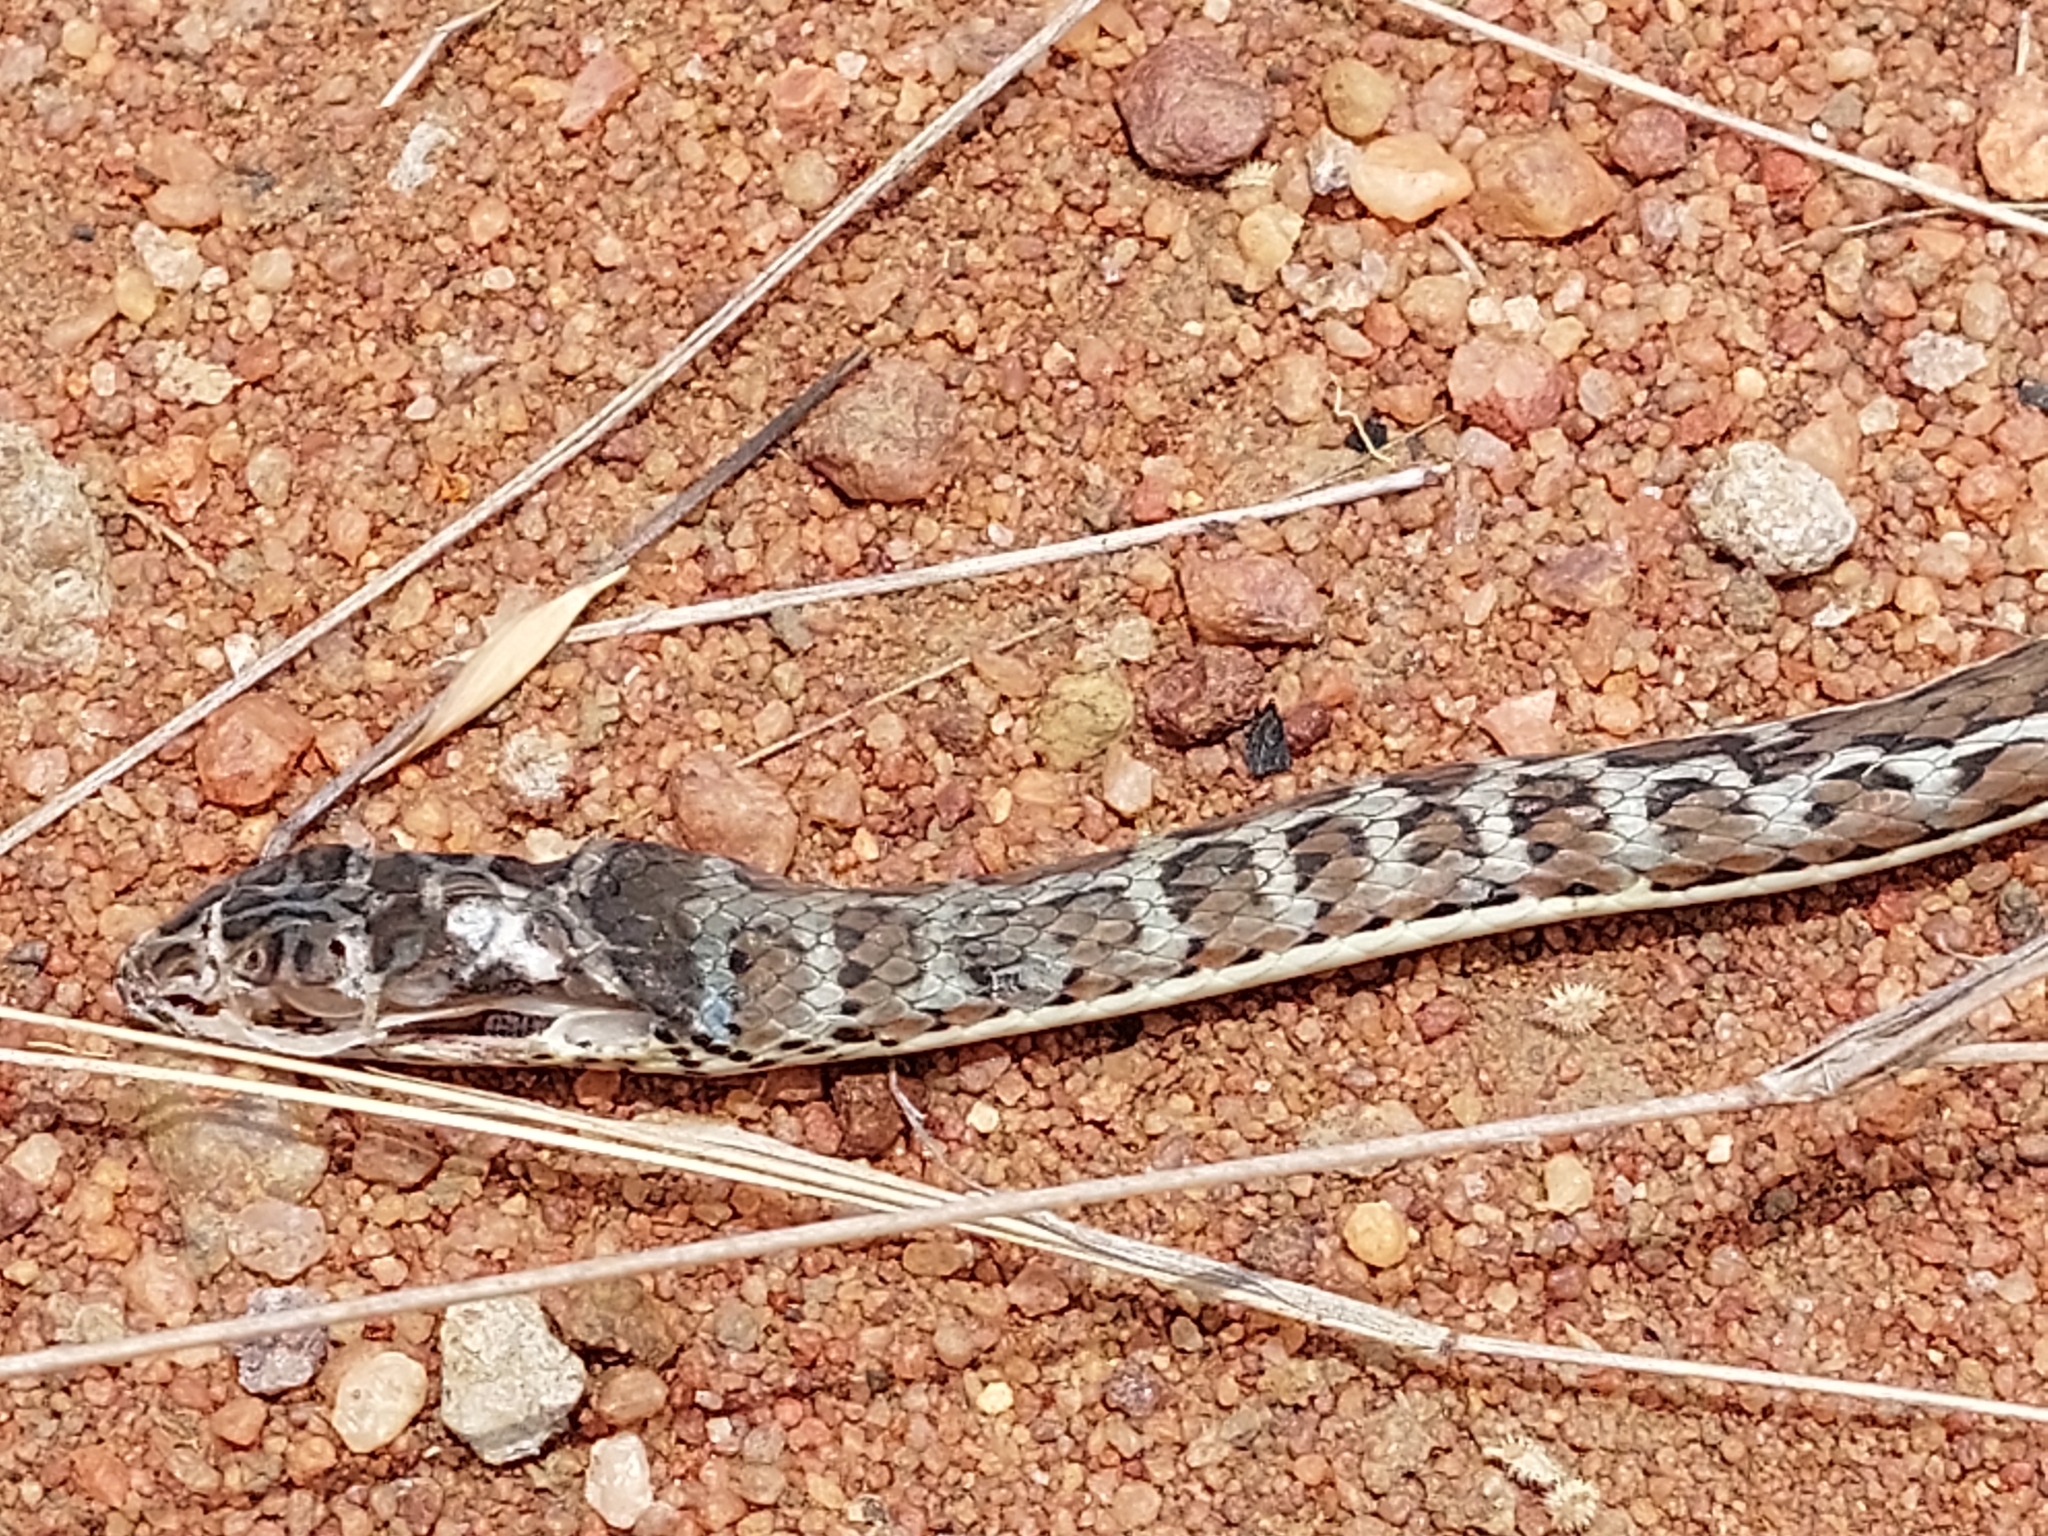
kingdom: Animalia
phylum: Chordata
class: Squamata
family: Psammophiidae
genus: Psammophis
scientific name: Psammophis subtaeniatus
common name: Stripe-bellied sand snake
